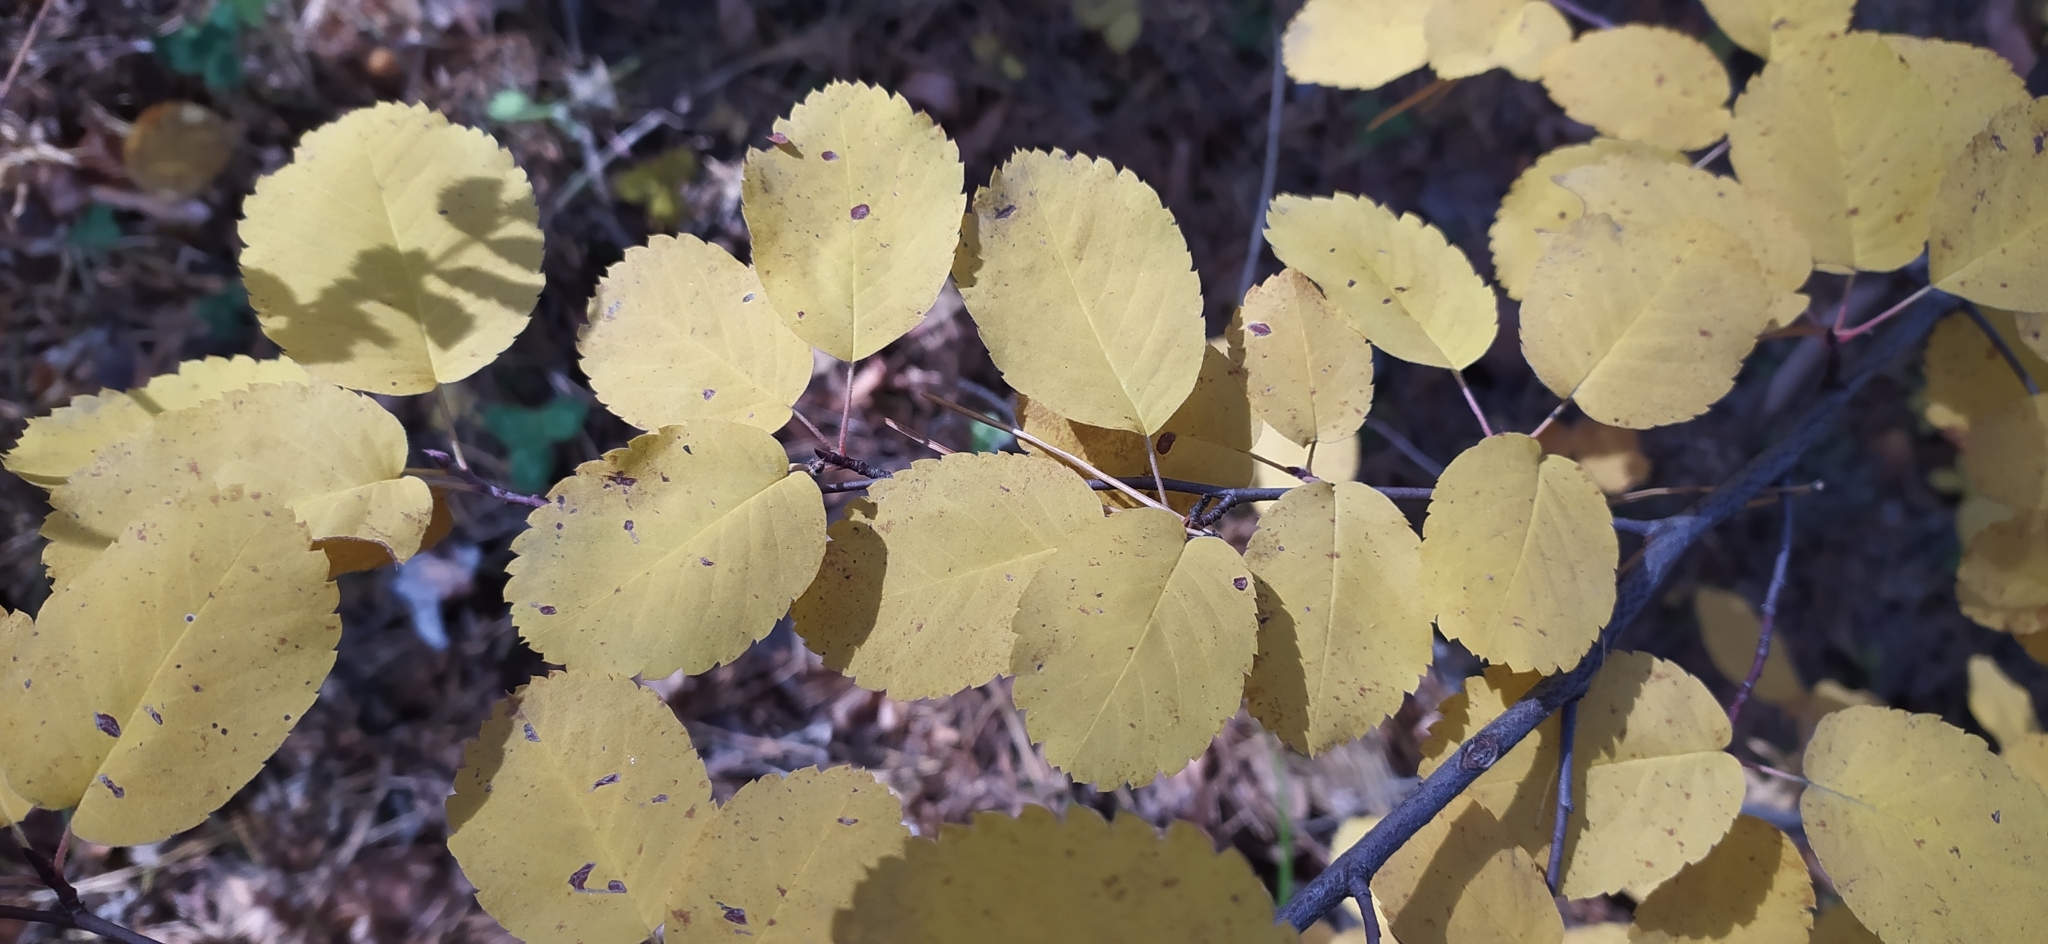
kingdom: Plantae
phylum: Tracheophyta
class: Magnoliopsida
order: Rosales
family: Rosaceae
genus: Amelanchier
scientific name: Amelanchier alnifolia
